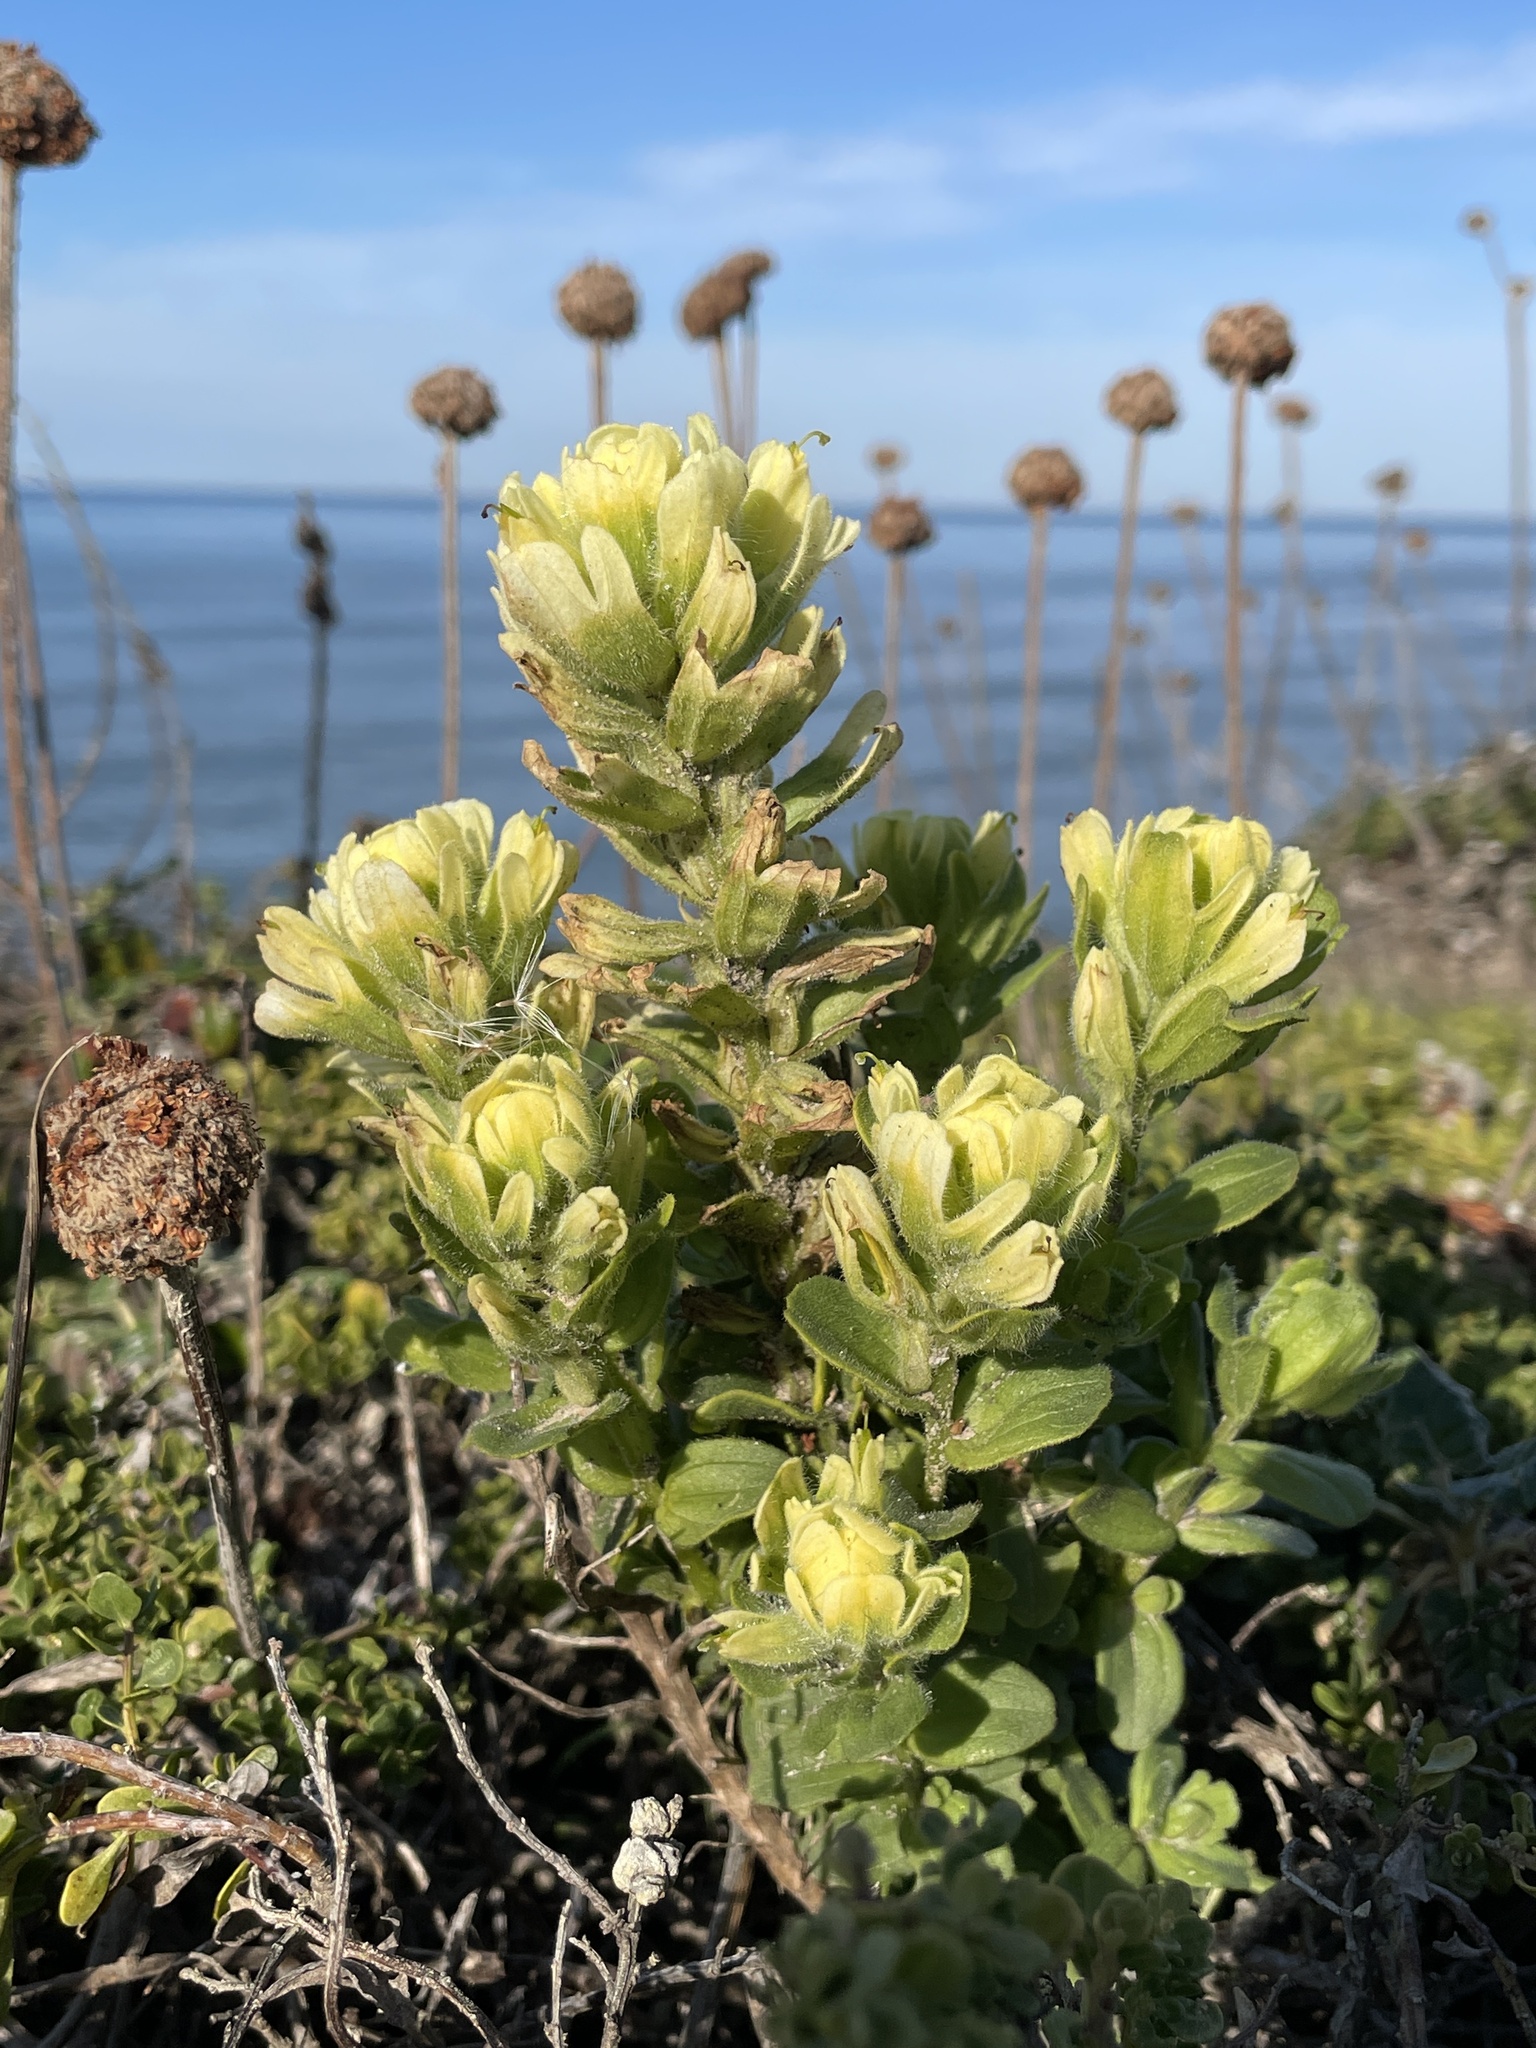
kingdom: Plantae
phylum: Tracheophyta
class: Magnoliopsida
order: Lamiales
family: Orobanchaceae
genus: Castilleja
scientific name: Castilleja wightii
